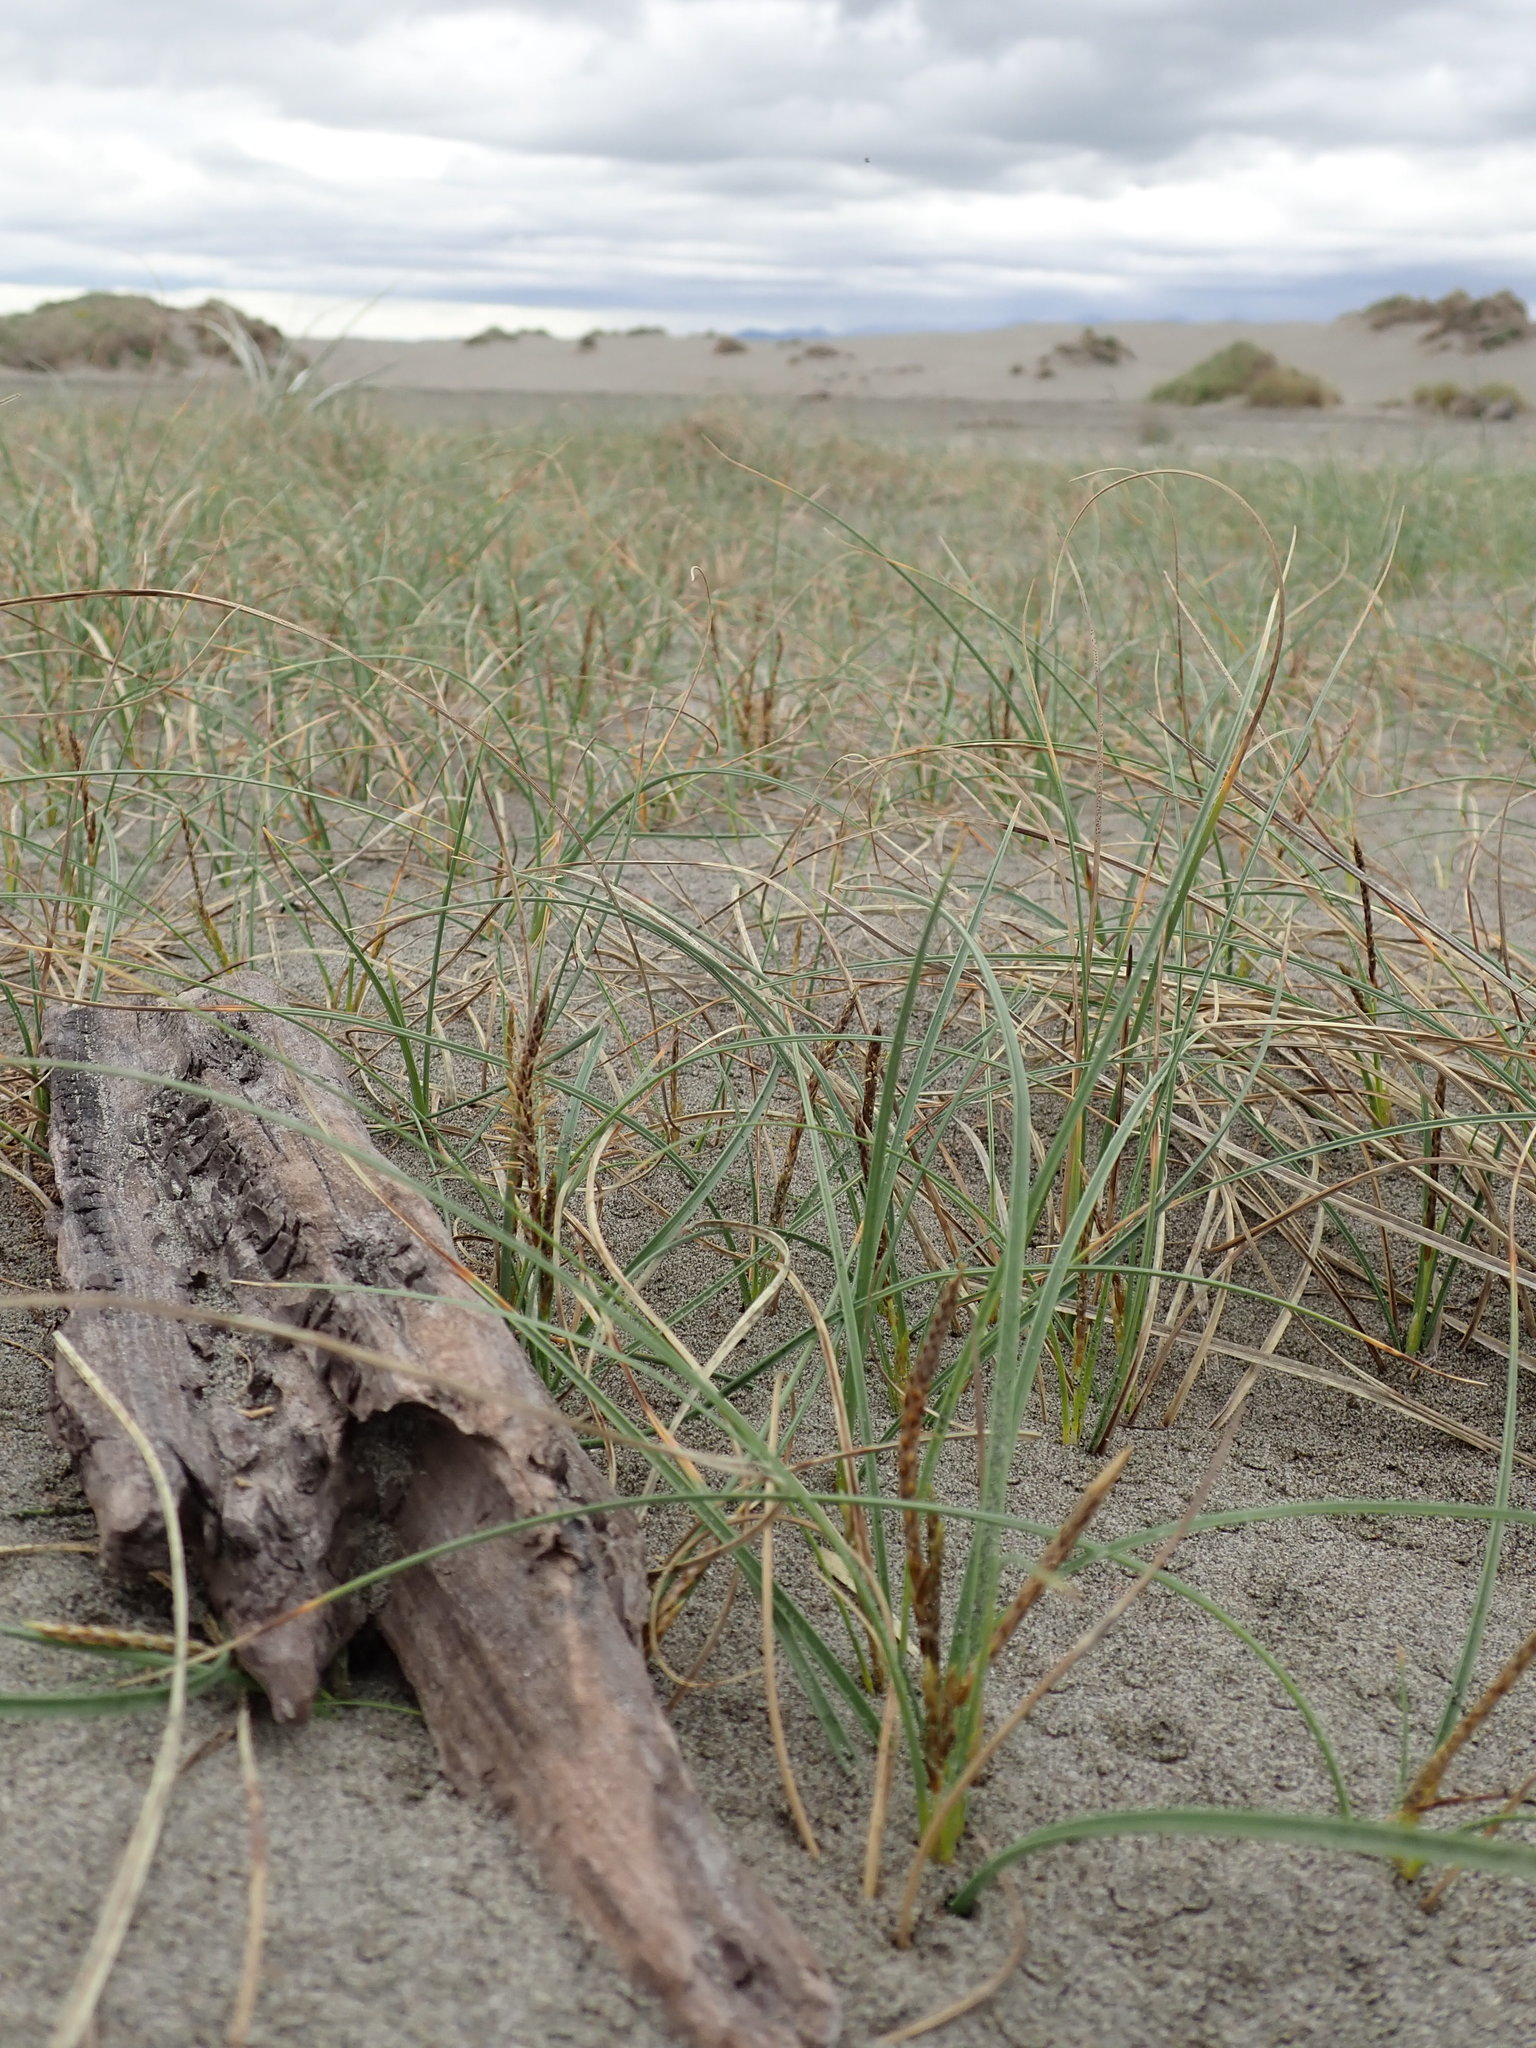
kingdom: Plantae
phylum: Tracheophyta
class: Liliopsida
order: Poales
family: Cyperaceae
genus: Carex
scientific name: Carex pumila
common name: Dwarf sedge
